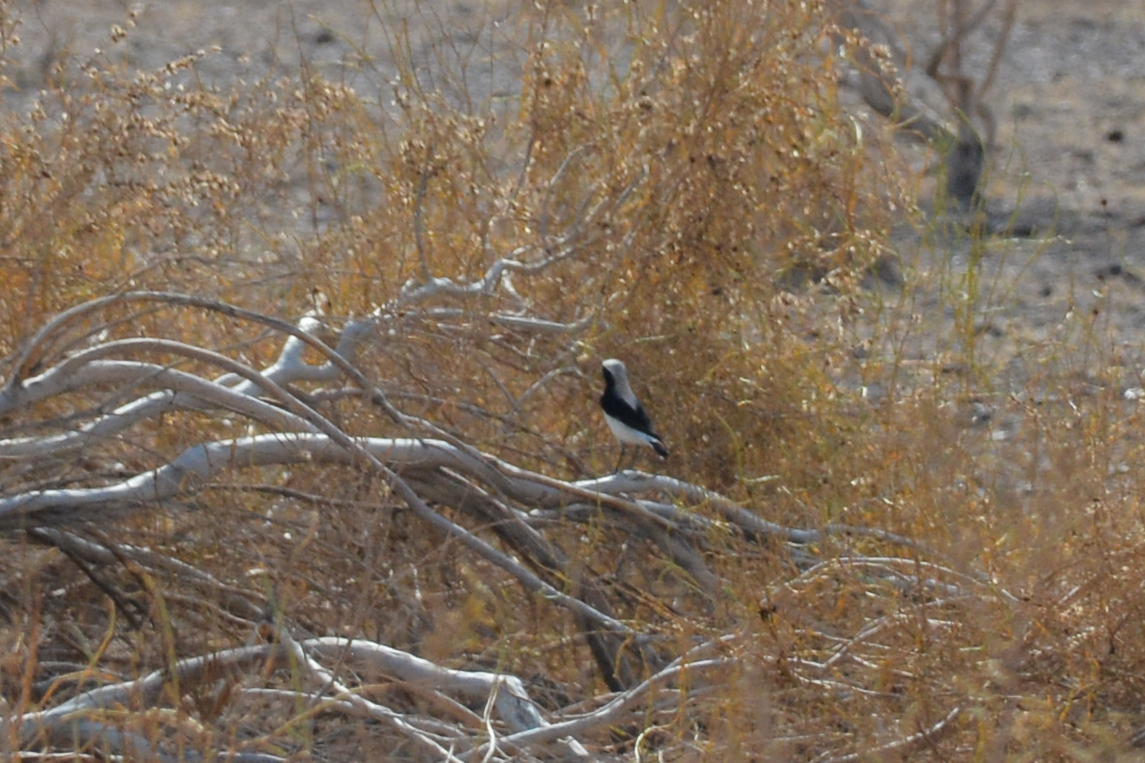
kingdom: Animalia
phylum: Chordata
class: Aves
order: Passeriformes
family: Muscicapidae
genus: Oenanthe
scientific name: Oenanthe finschii
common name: Finsch's wheatear
